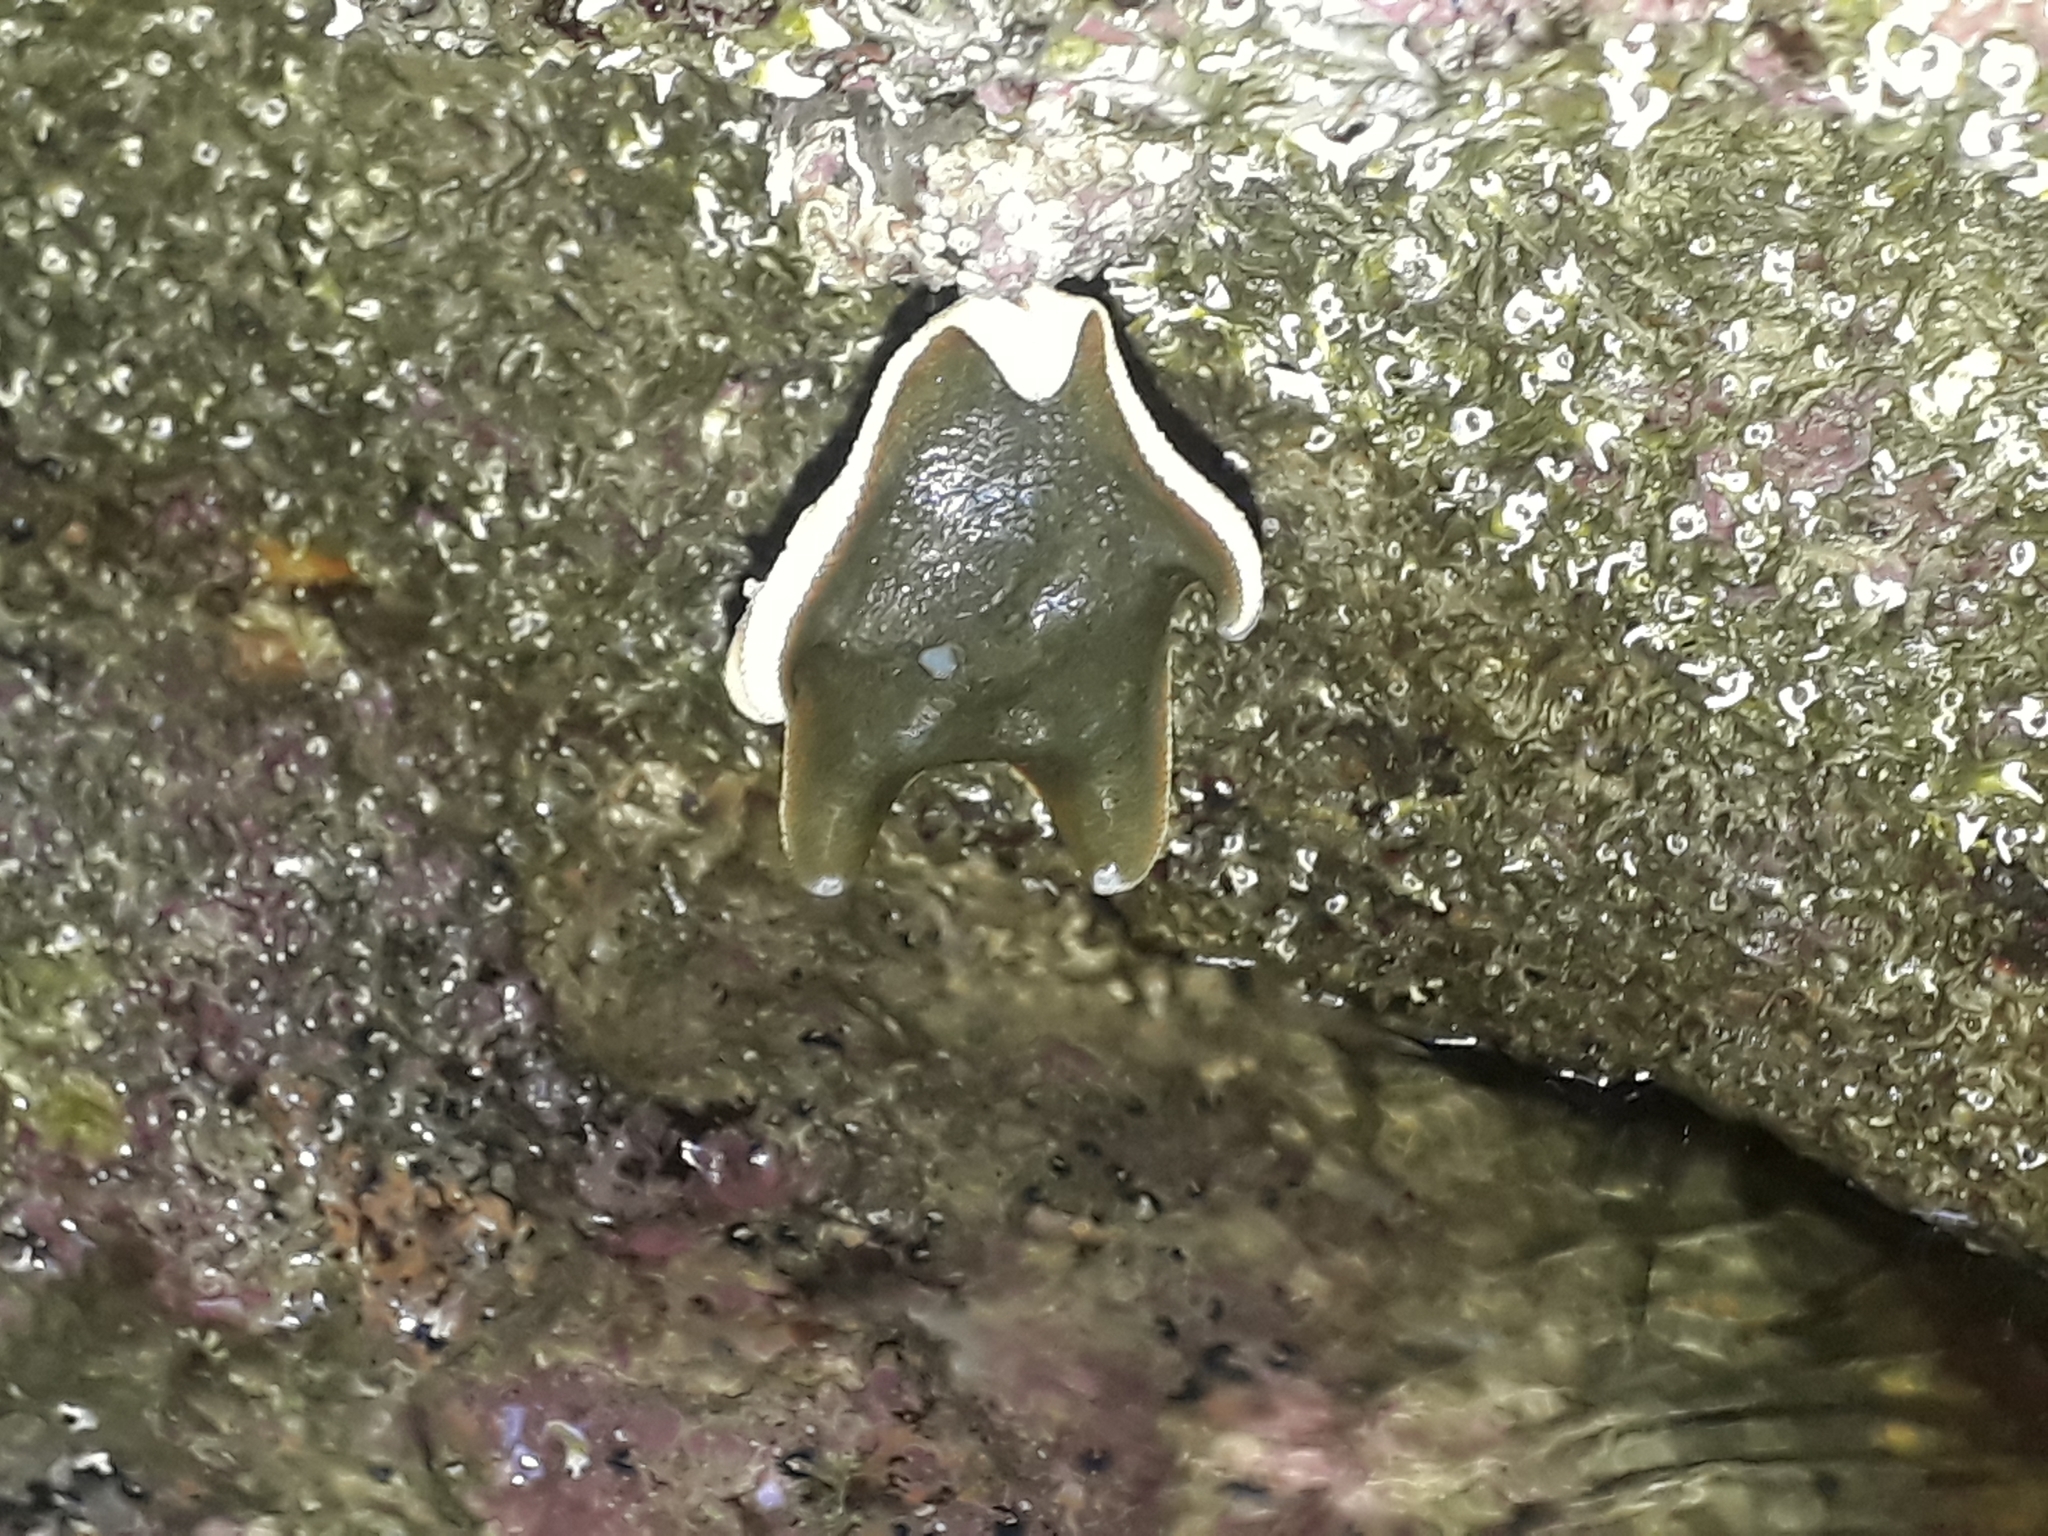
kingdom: Animalia
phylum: Echinodermata
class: Asteroidea
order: Valvatida
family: Asterinidae
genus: Patiriella
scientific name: Patiriella regularis
